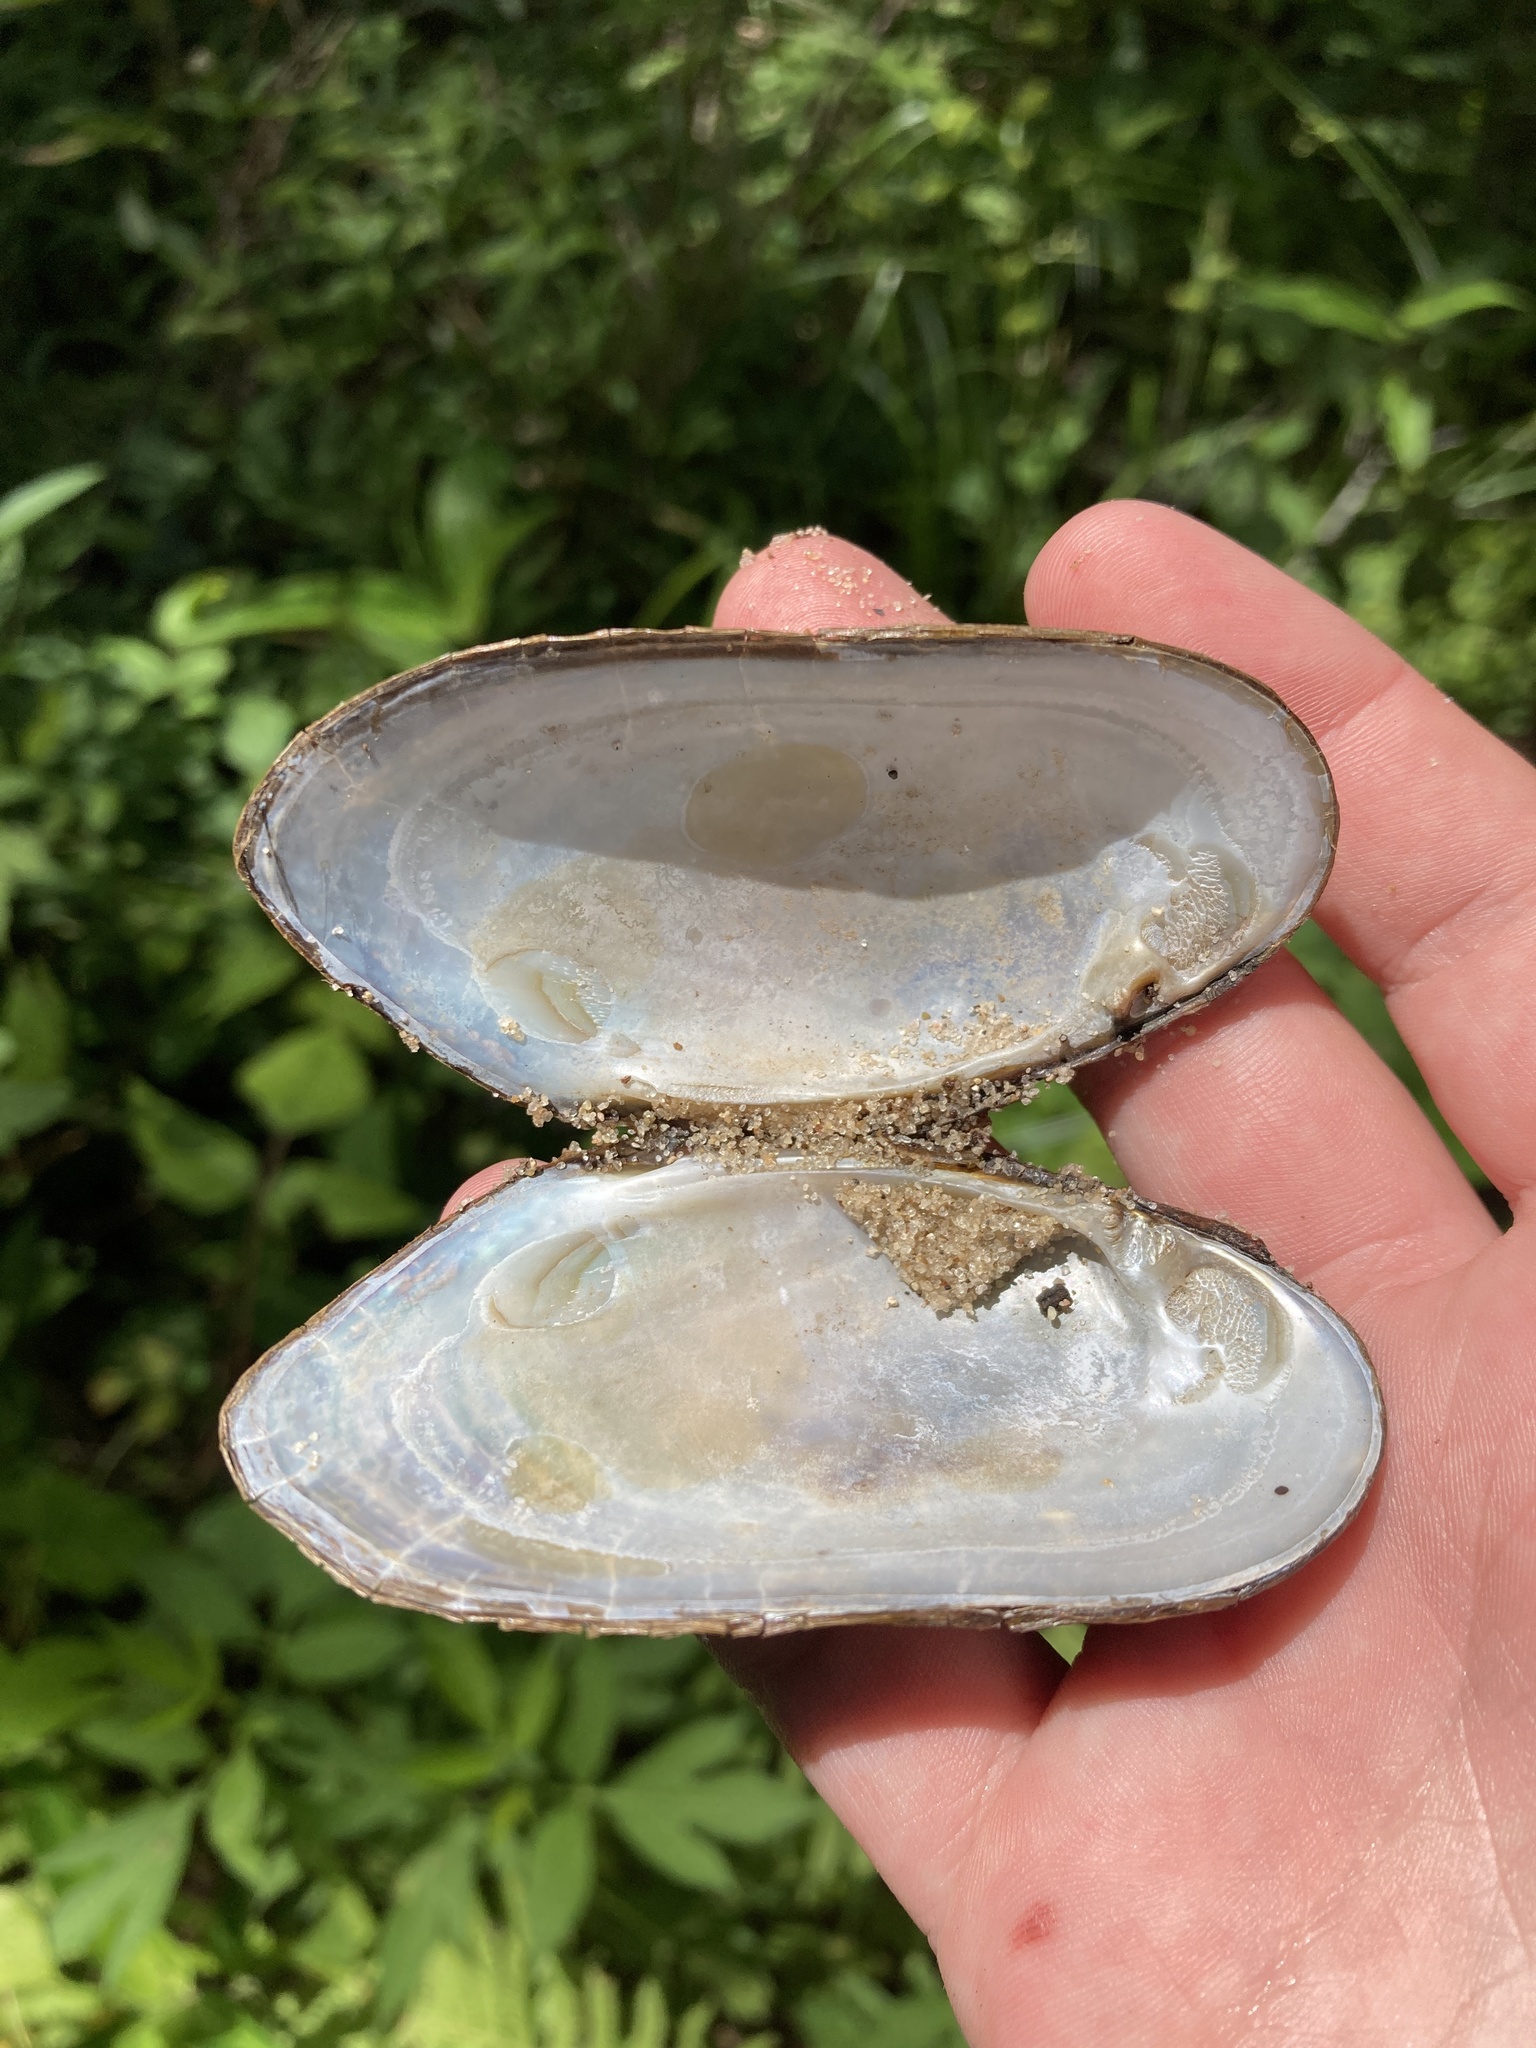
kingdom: Animalia
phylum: Mollusca
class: Bivalvia
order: Unionida
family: Margaritiferidae
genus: Margaritifera
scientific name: Margaritifera hembeli
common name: Louisiana pearlshell
